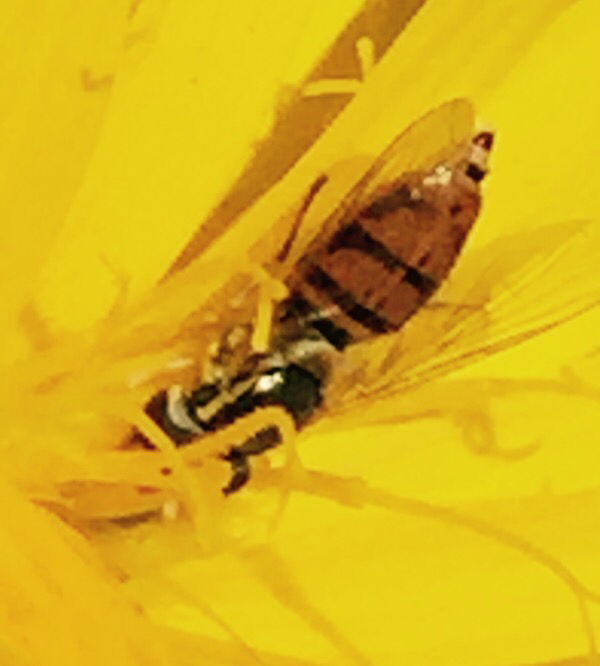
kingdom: Animalia
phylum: Arthropoda
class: Insecta
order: Diptera
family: Syrphidae
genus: Toxomerus
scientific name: Toxomerus marginatus
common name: Syrphid fly
